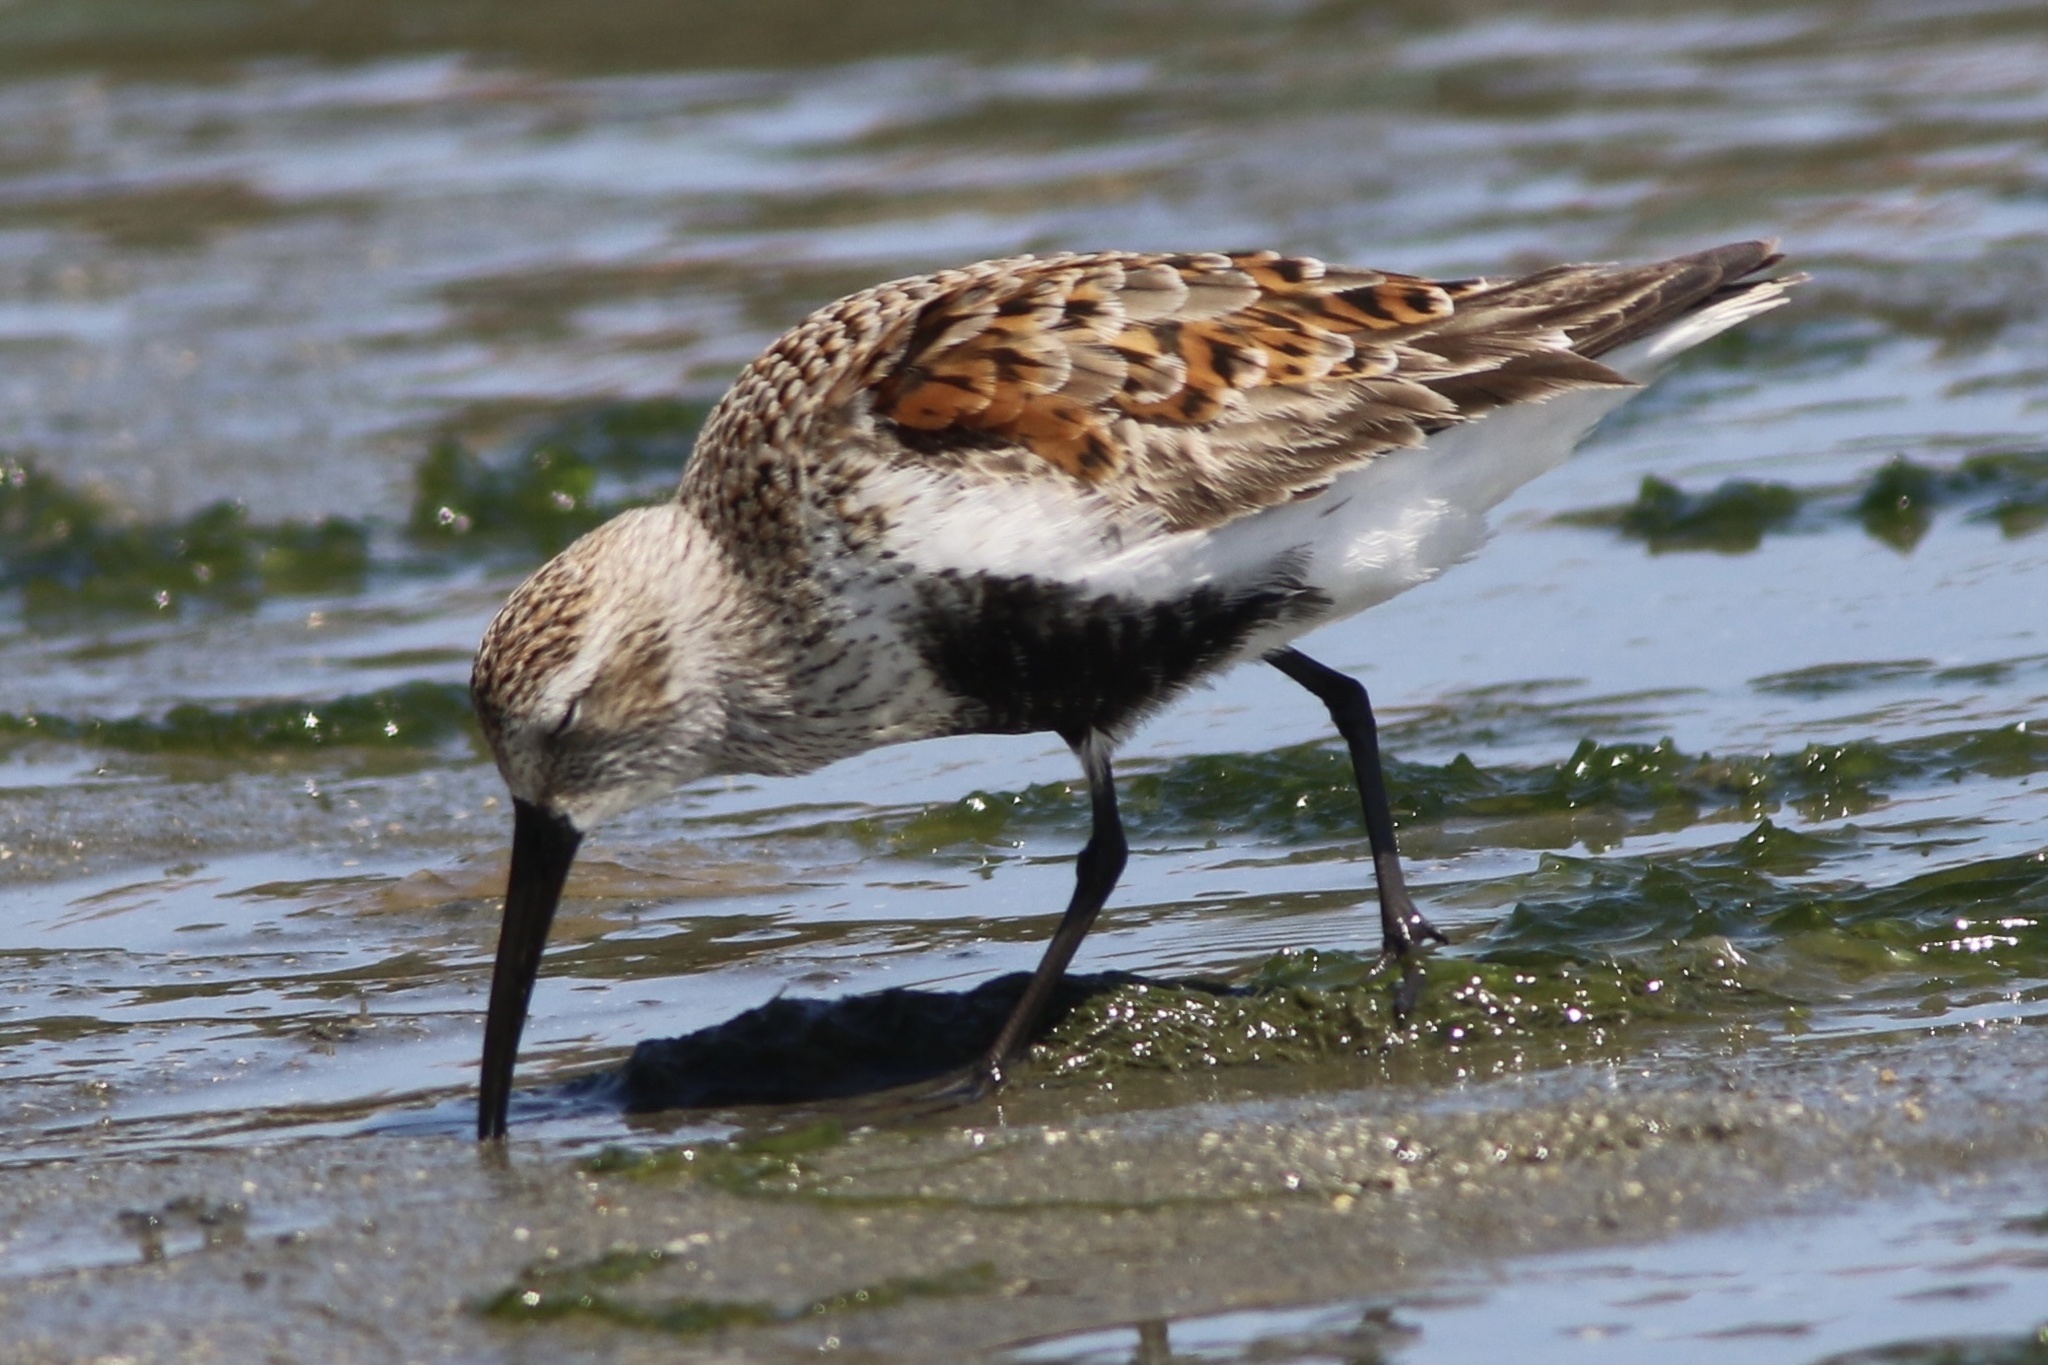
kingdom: Animalia
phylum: Chordata
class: Aves
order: Charadriiformes
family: Scolopacidae
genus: Calidris
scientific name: Calidris alpina
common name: Dunlin
